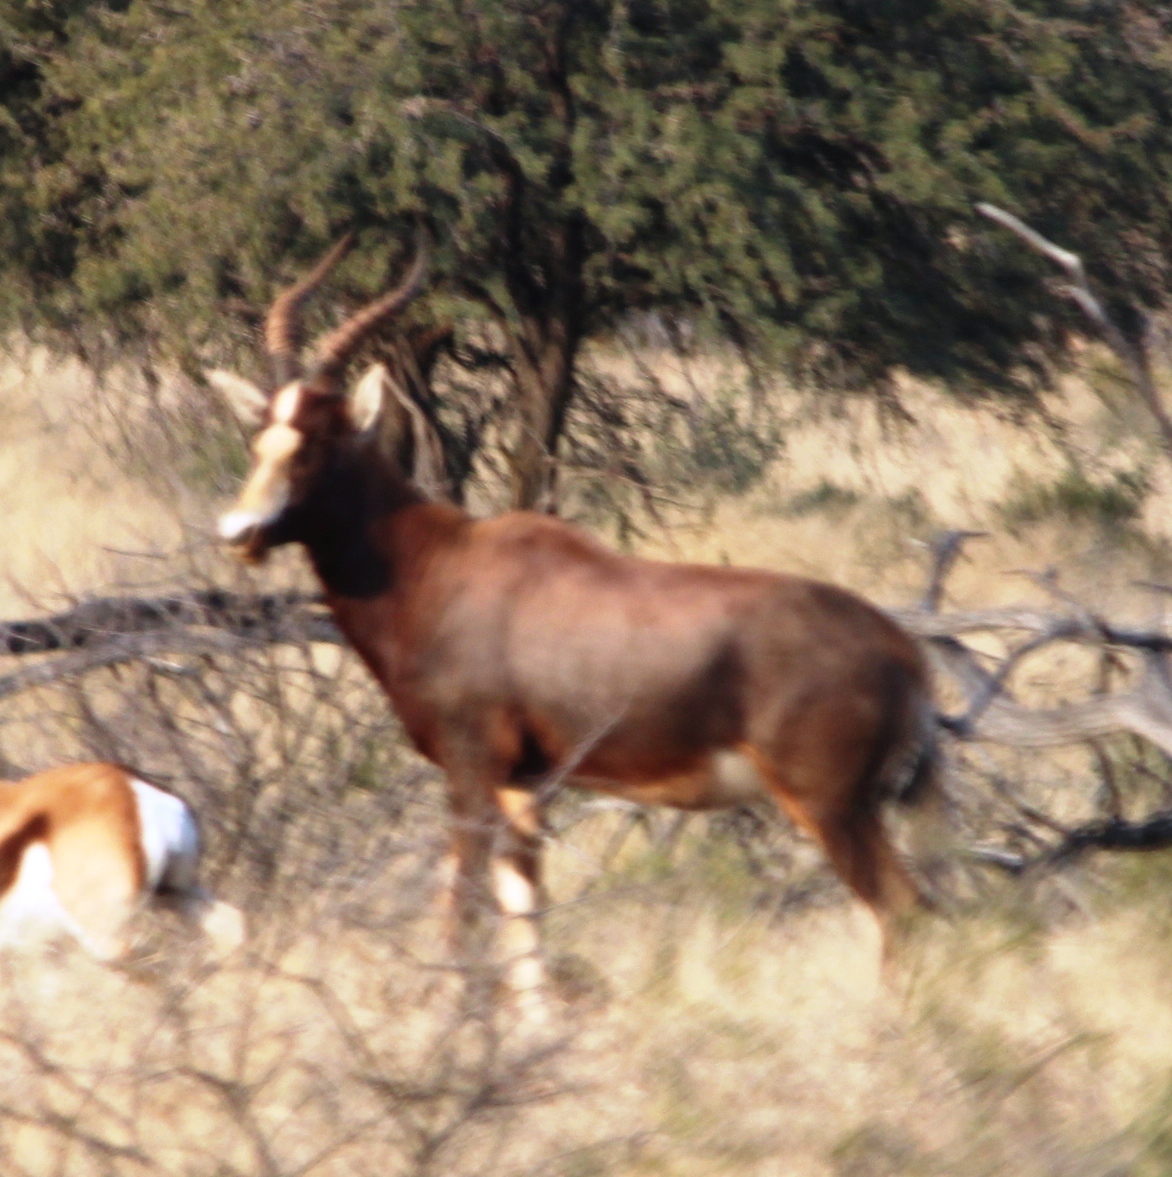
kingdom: Animalia
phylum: Chordata
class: Mammalia
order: Artiodactyla
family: Bovidae
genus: Damaliscus
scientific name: Damaliscus pygargus
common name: Bontebok
